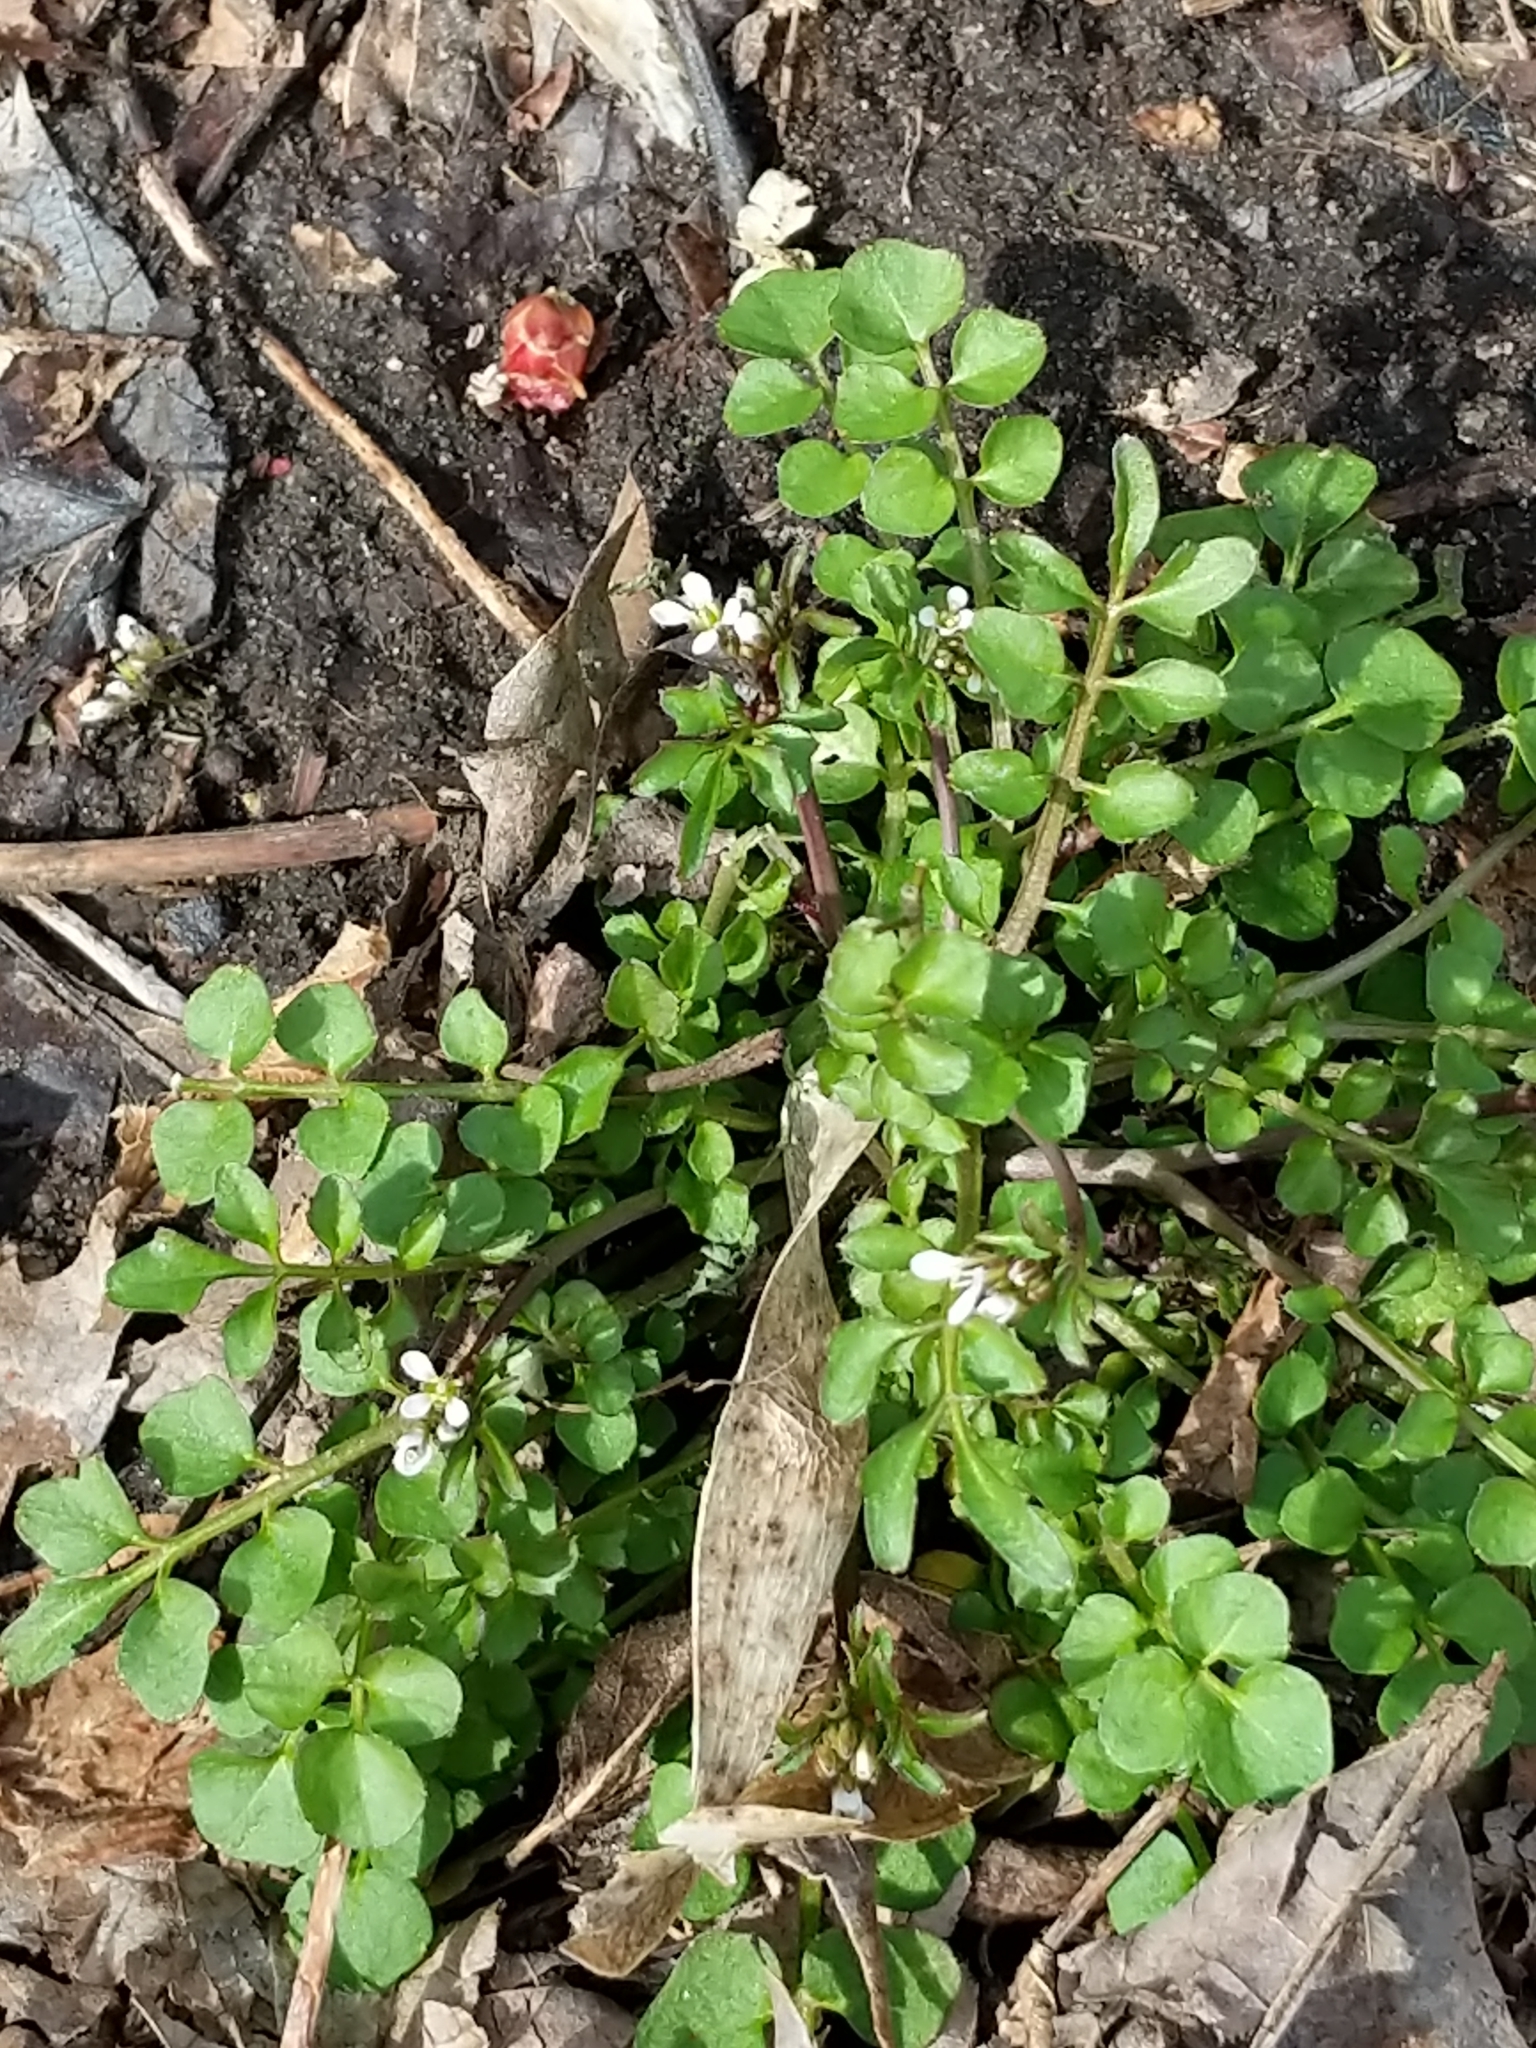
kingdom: Plantae
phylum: Tracheophyta
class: Magnoliopsida
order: Brassicales
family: Brassicaceae
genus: Cardamine
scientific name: Cardamine hirsuta
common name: Hairy bittercress
